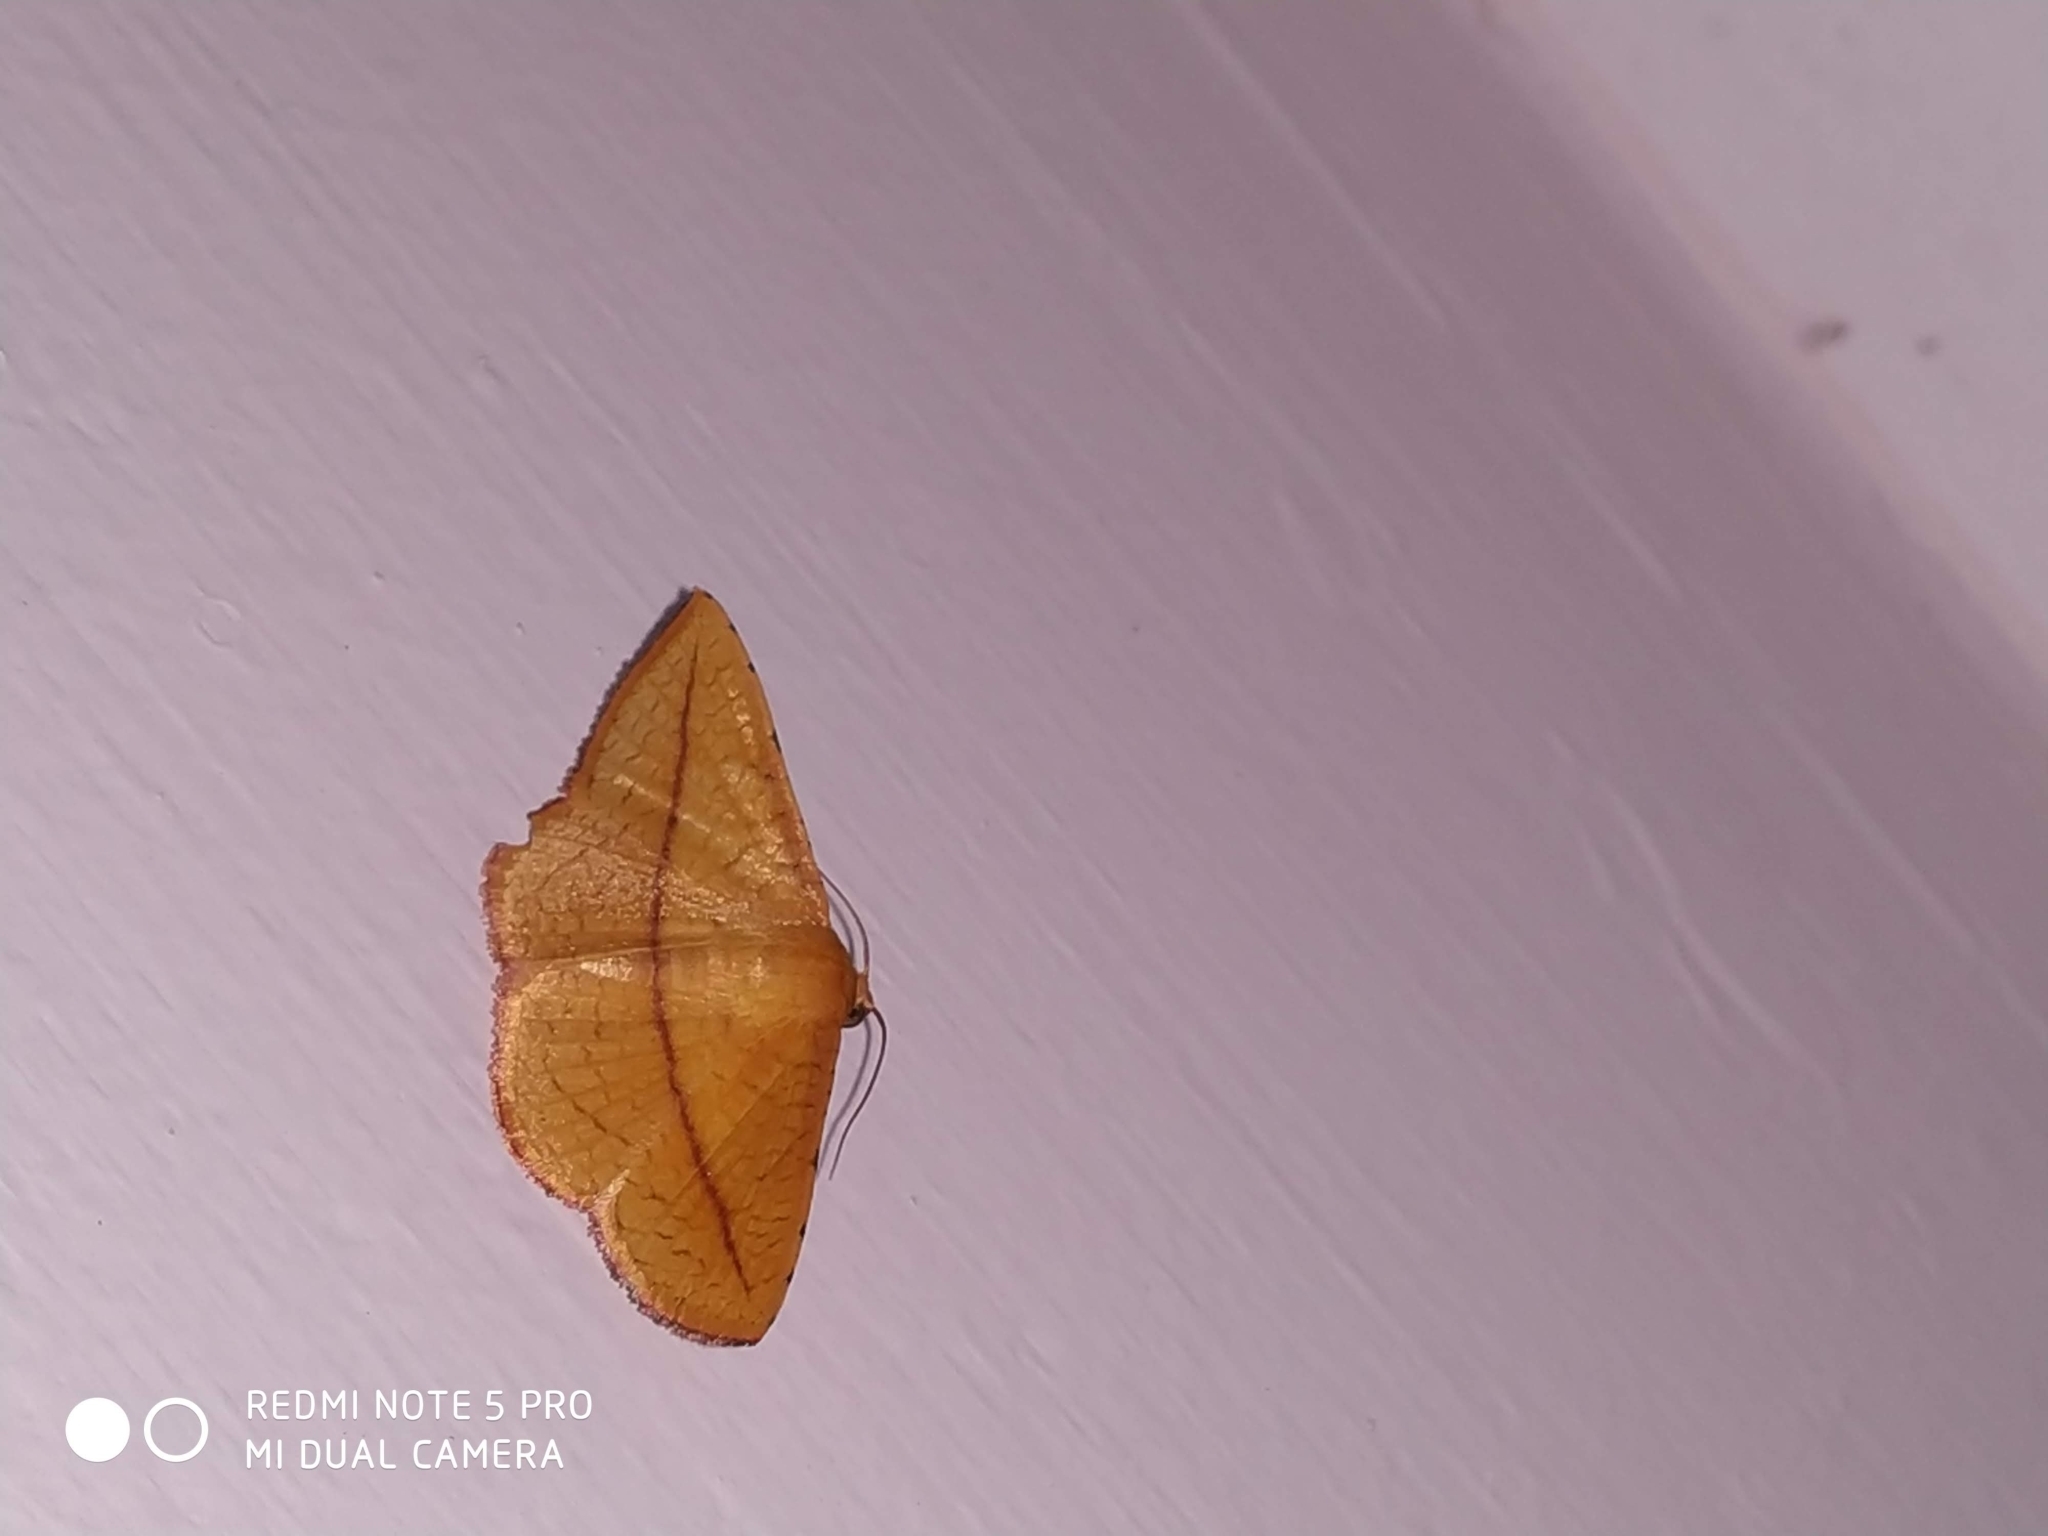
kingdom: Animalia
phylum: Arthropoda
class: Insecta
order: Lepidoptera
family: Thyrididae
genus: Striglina
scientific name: Striglina scitaria
